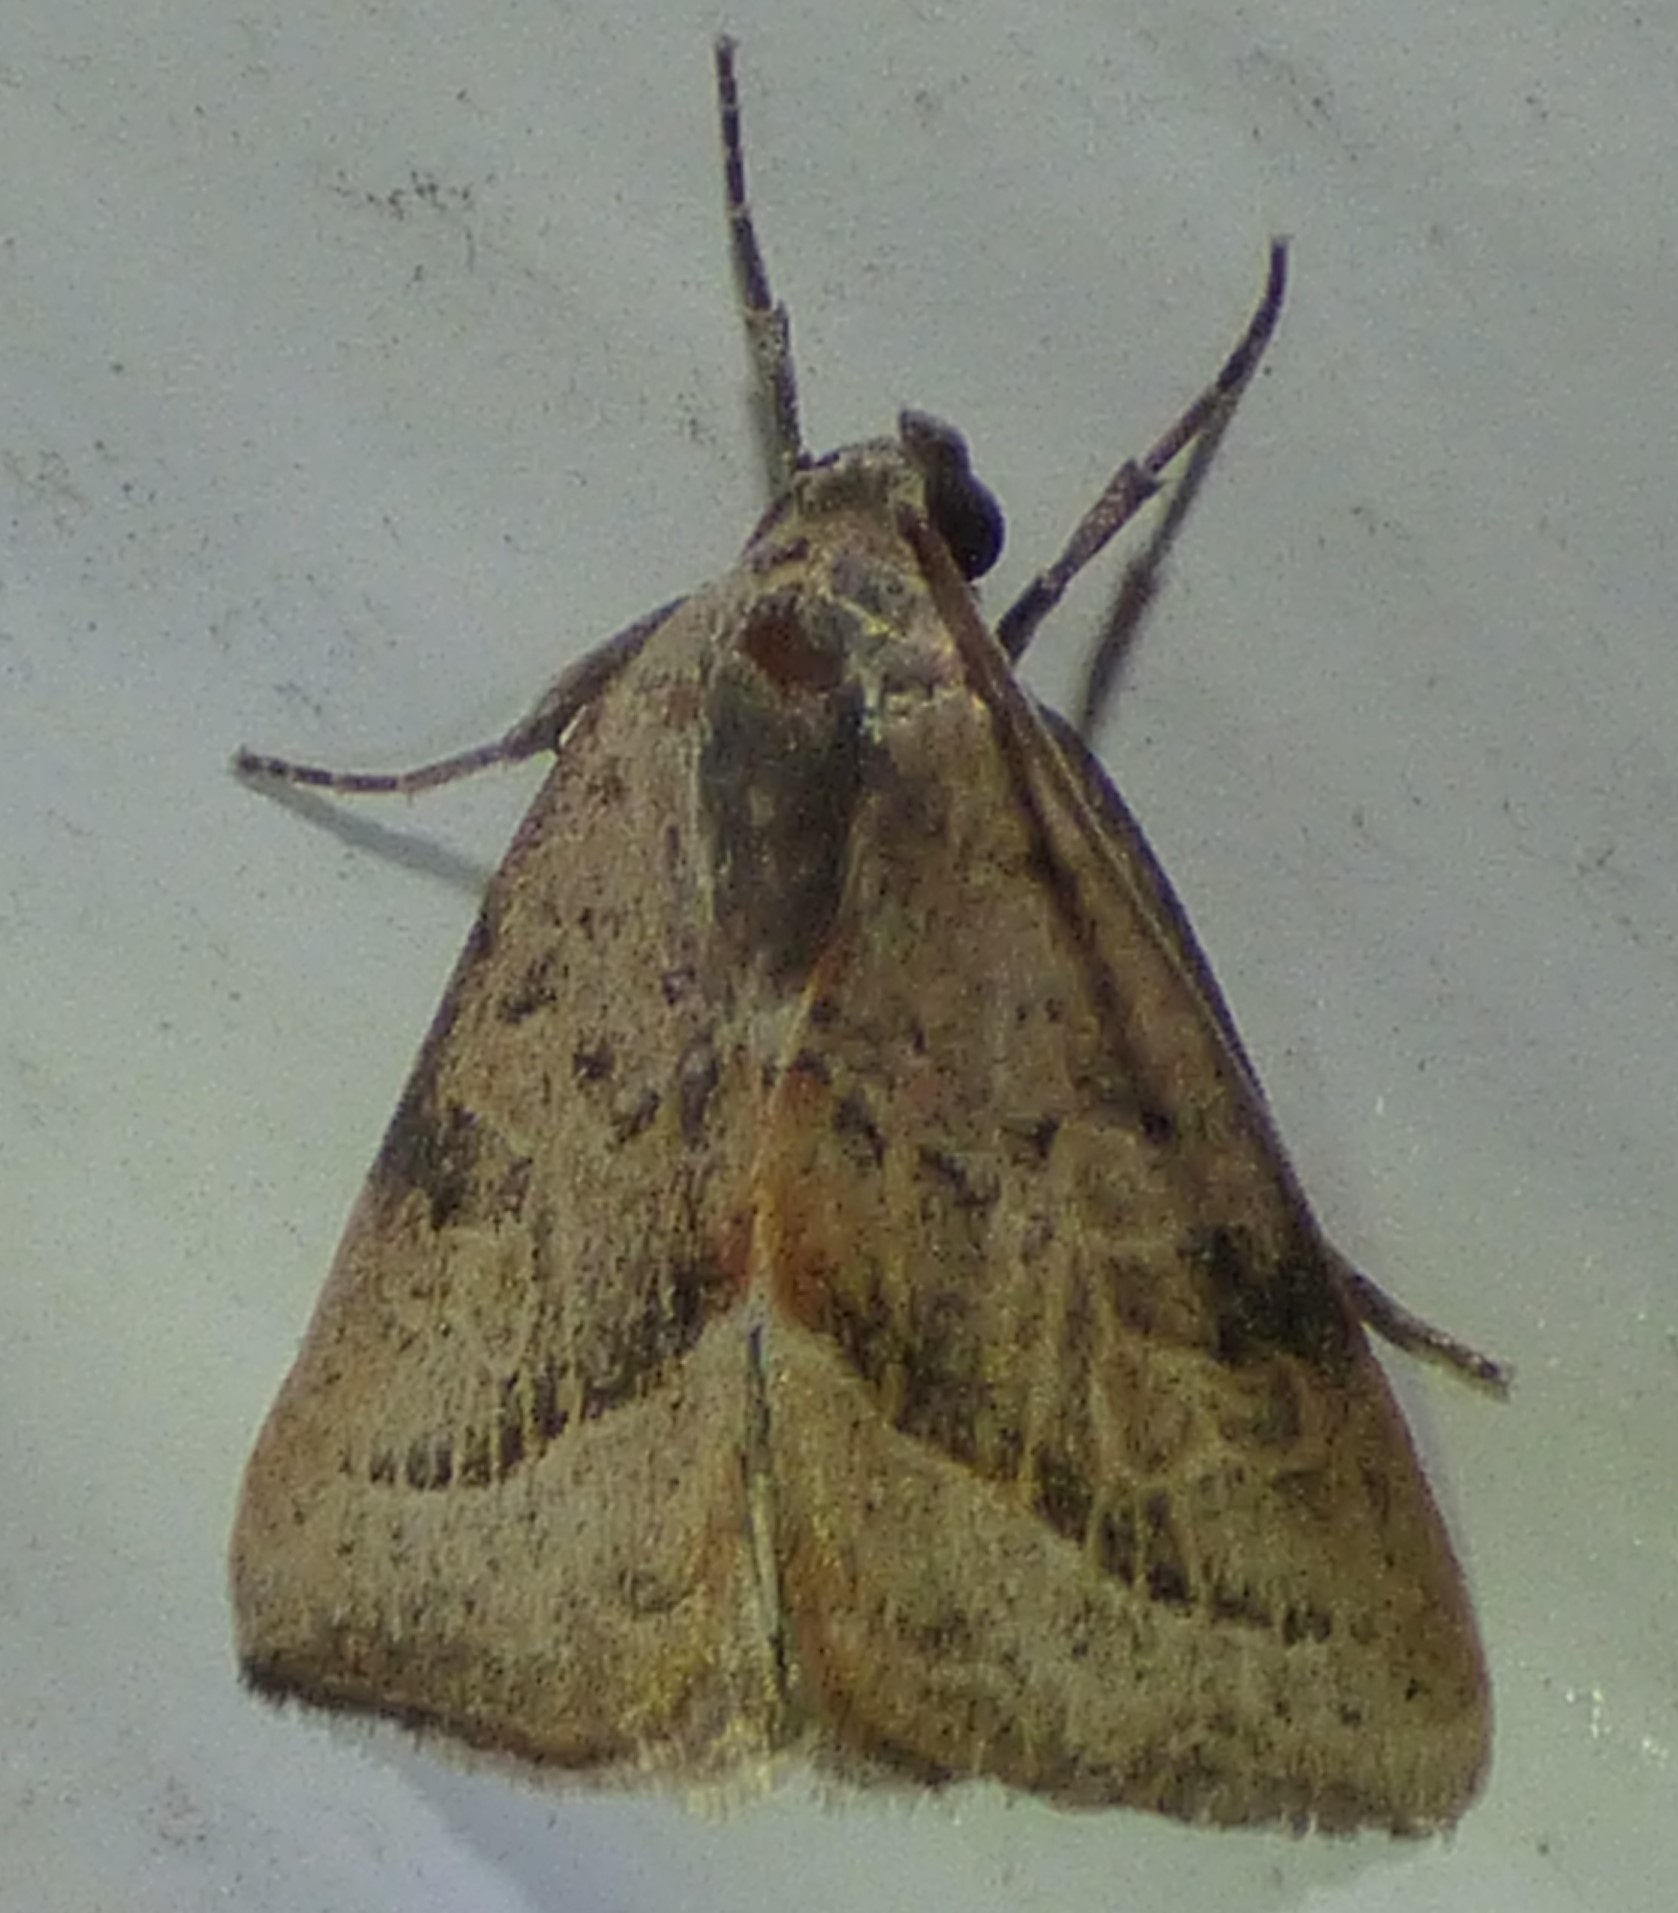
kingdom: Animalia
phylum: Arthropoda
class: Insecta
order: Lepidoptera
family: Noctuidae
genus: Galgula
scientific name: Galgula partita
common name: Wedgeling
